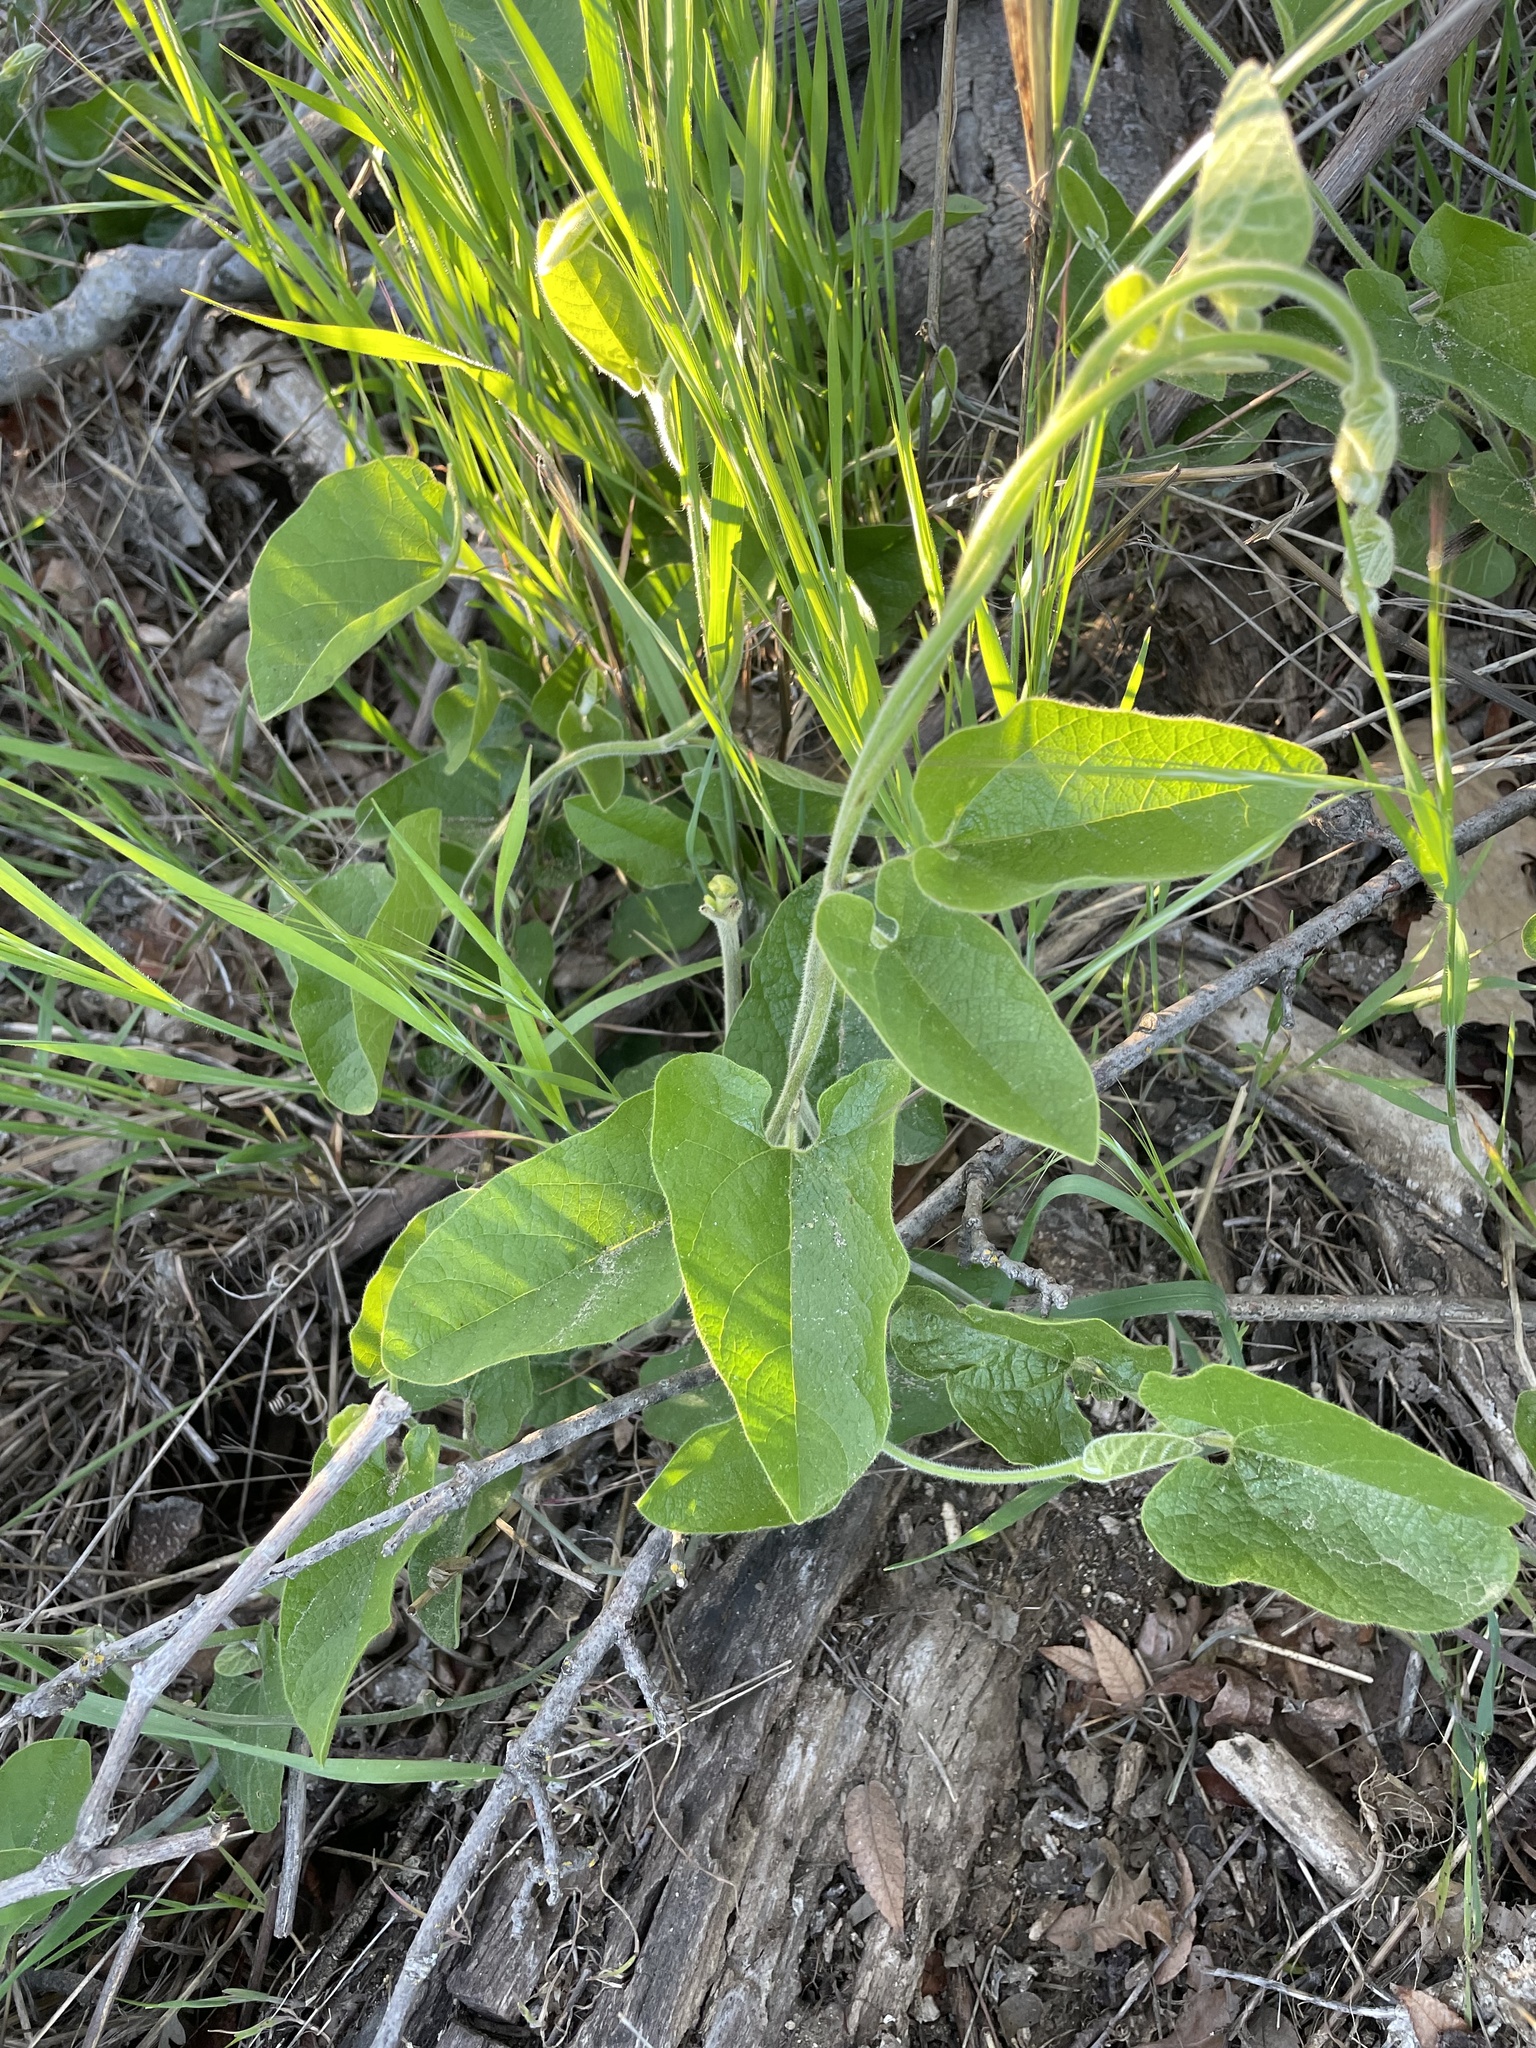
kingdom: Plantae
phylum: Tracheophyta
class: Magnoliopsida
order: Piperales
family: Aristolochiaceae
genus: Isotrema
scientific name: Isotrema californicum
